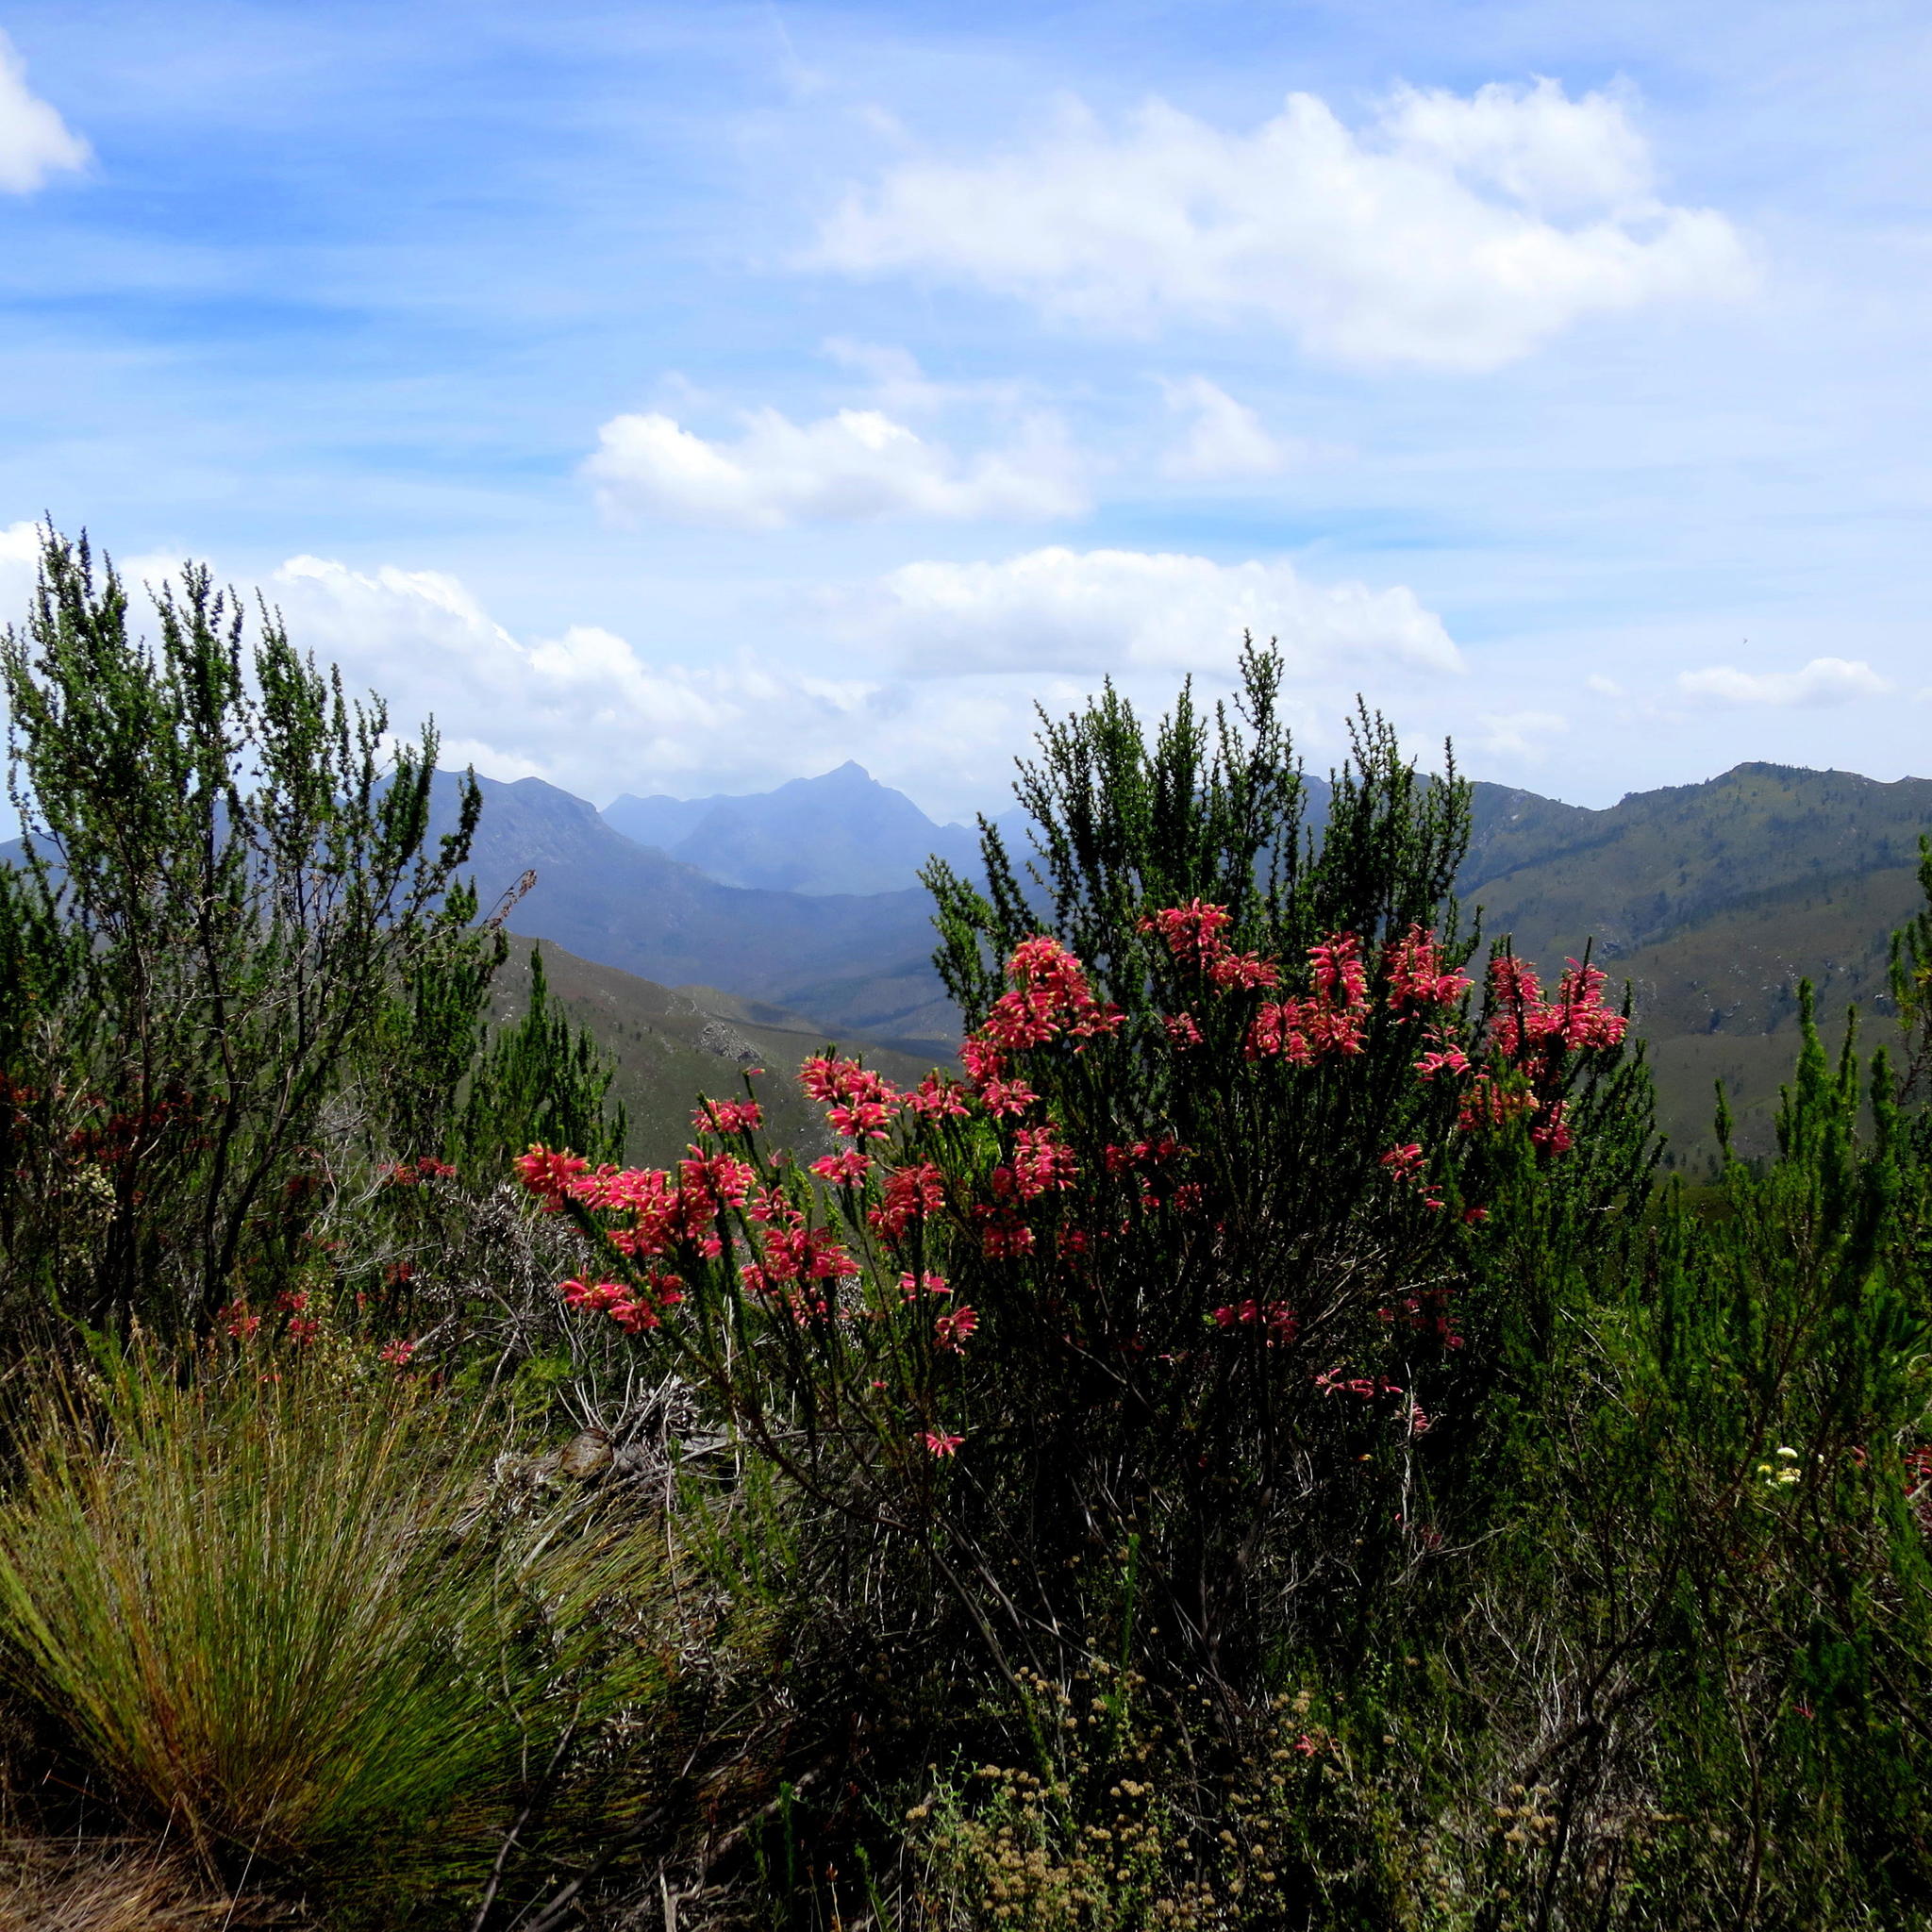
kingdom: Plantae
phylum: Tracheophyta
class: Magnoliopsida
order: Ericales
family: Ericaceae
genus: Erica
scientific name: Erica densifolia
